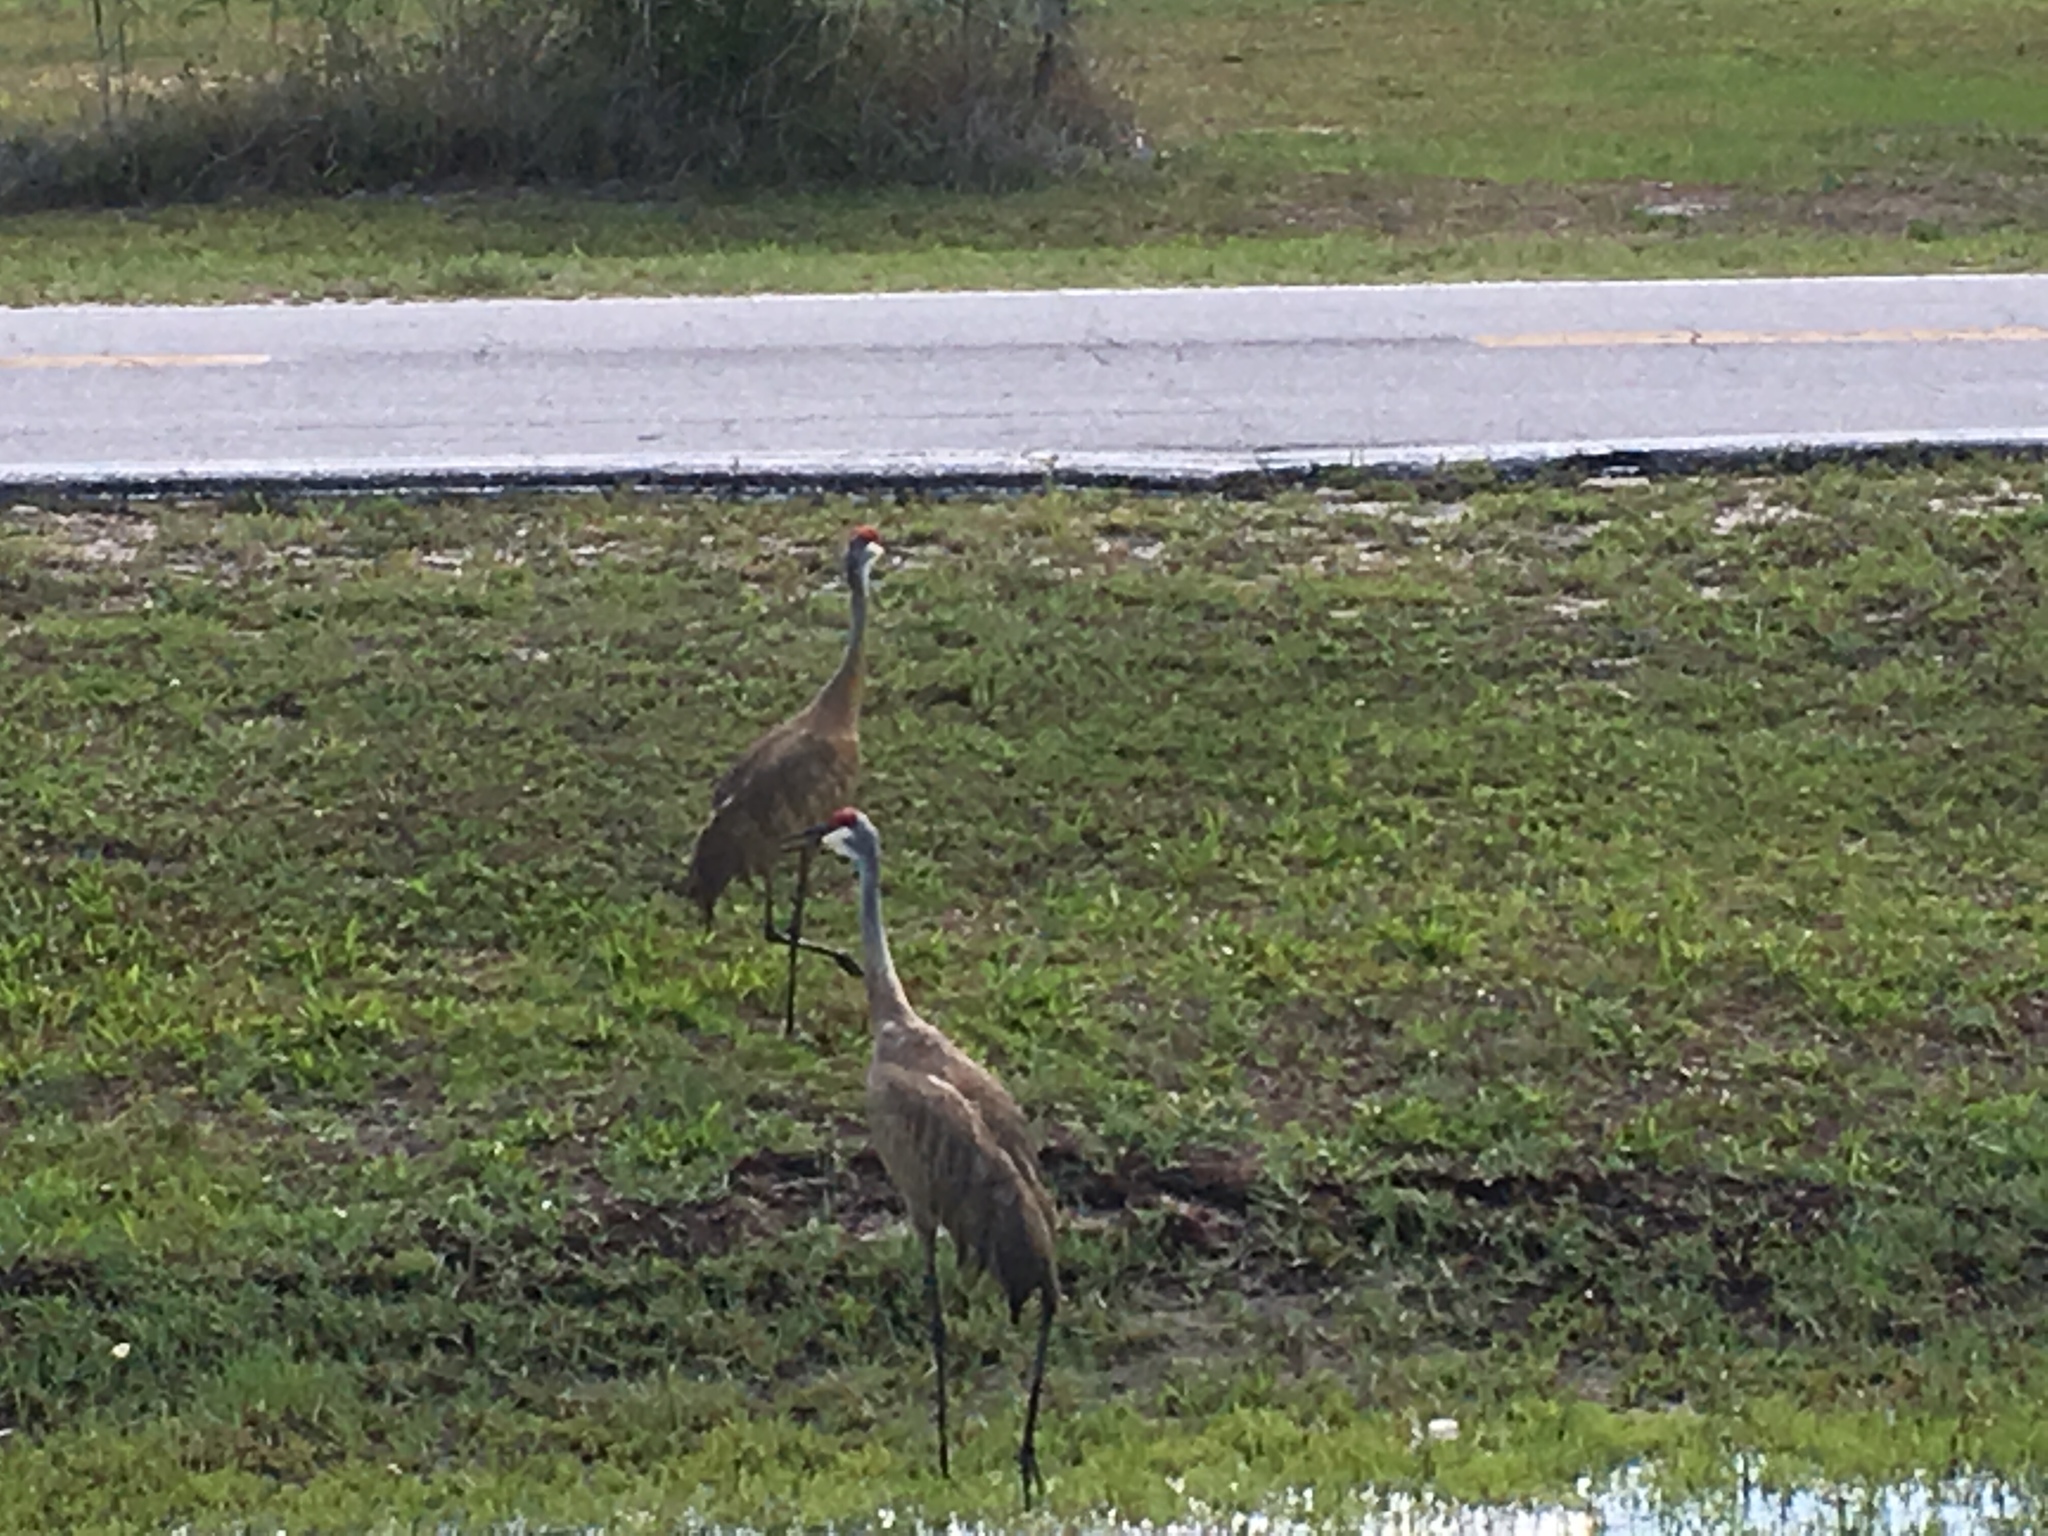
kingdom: Animalia
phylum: Chordata
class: Aves
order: Gruiformes
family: Gruidae
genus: Grus
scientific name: Grus canadensis
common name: Sandhill crane
